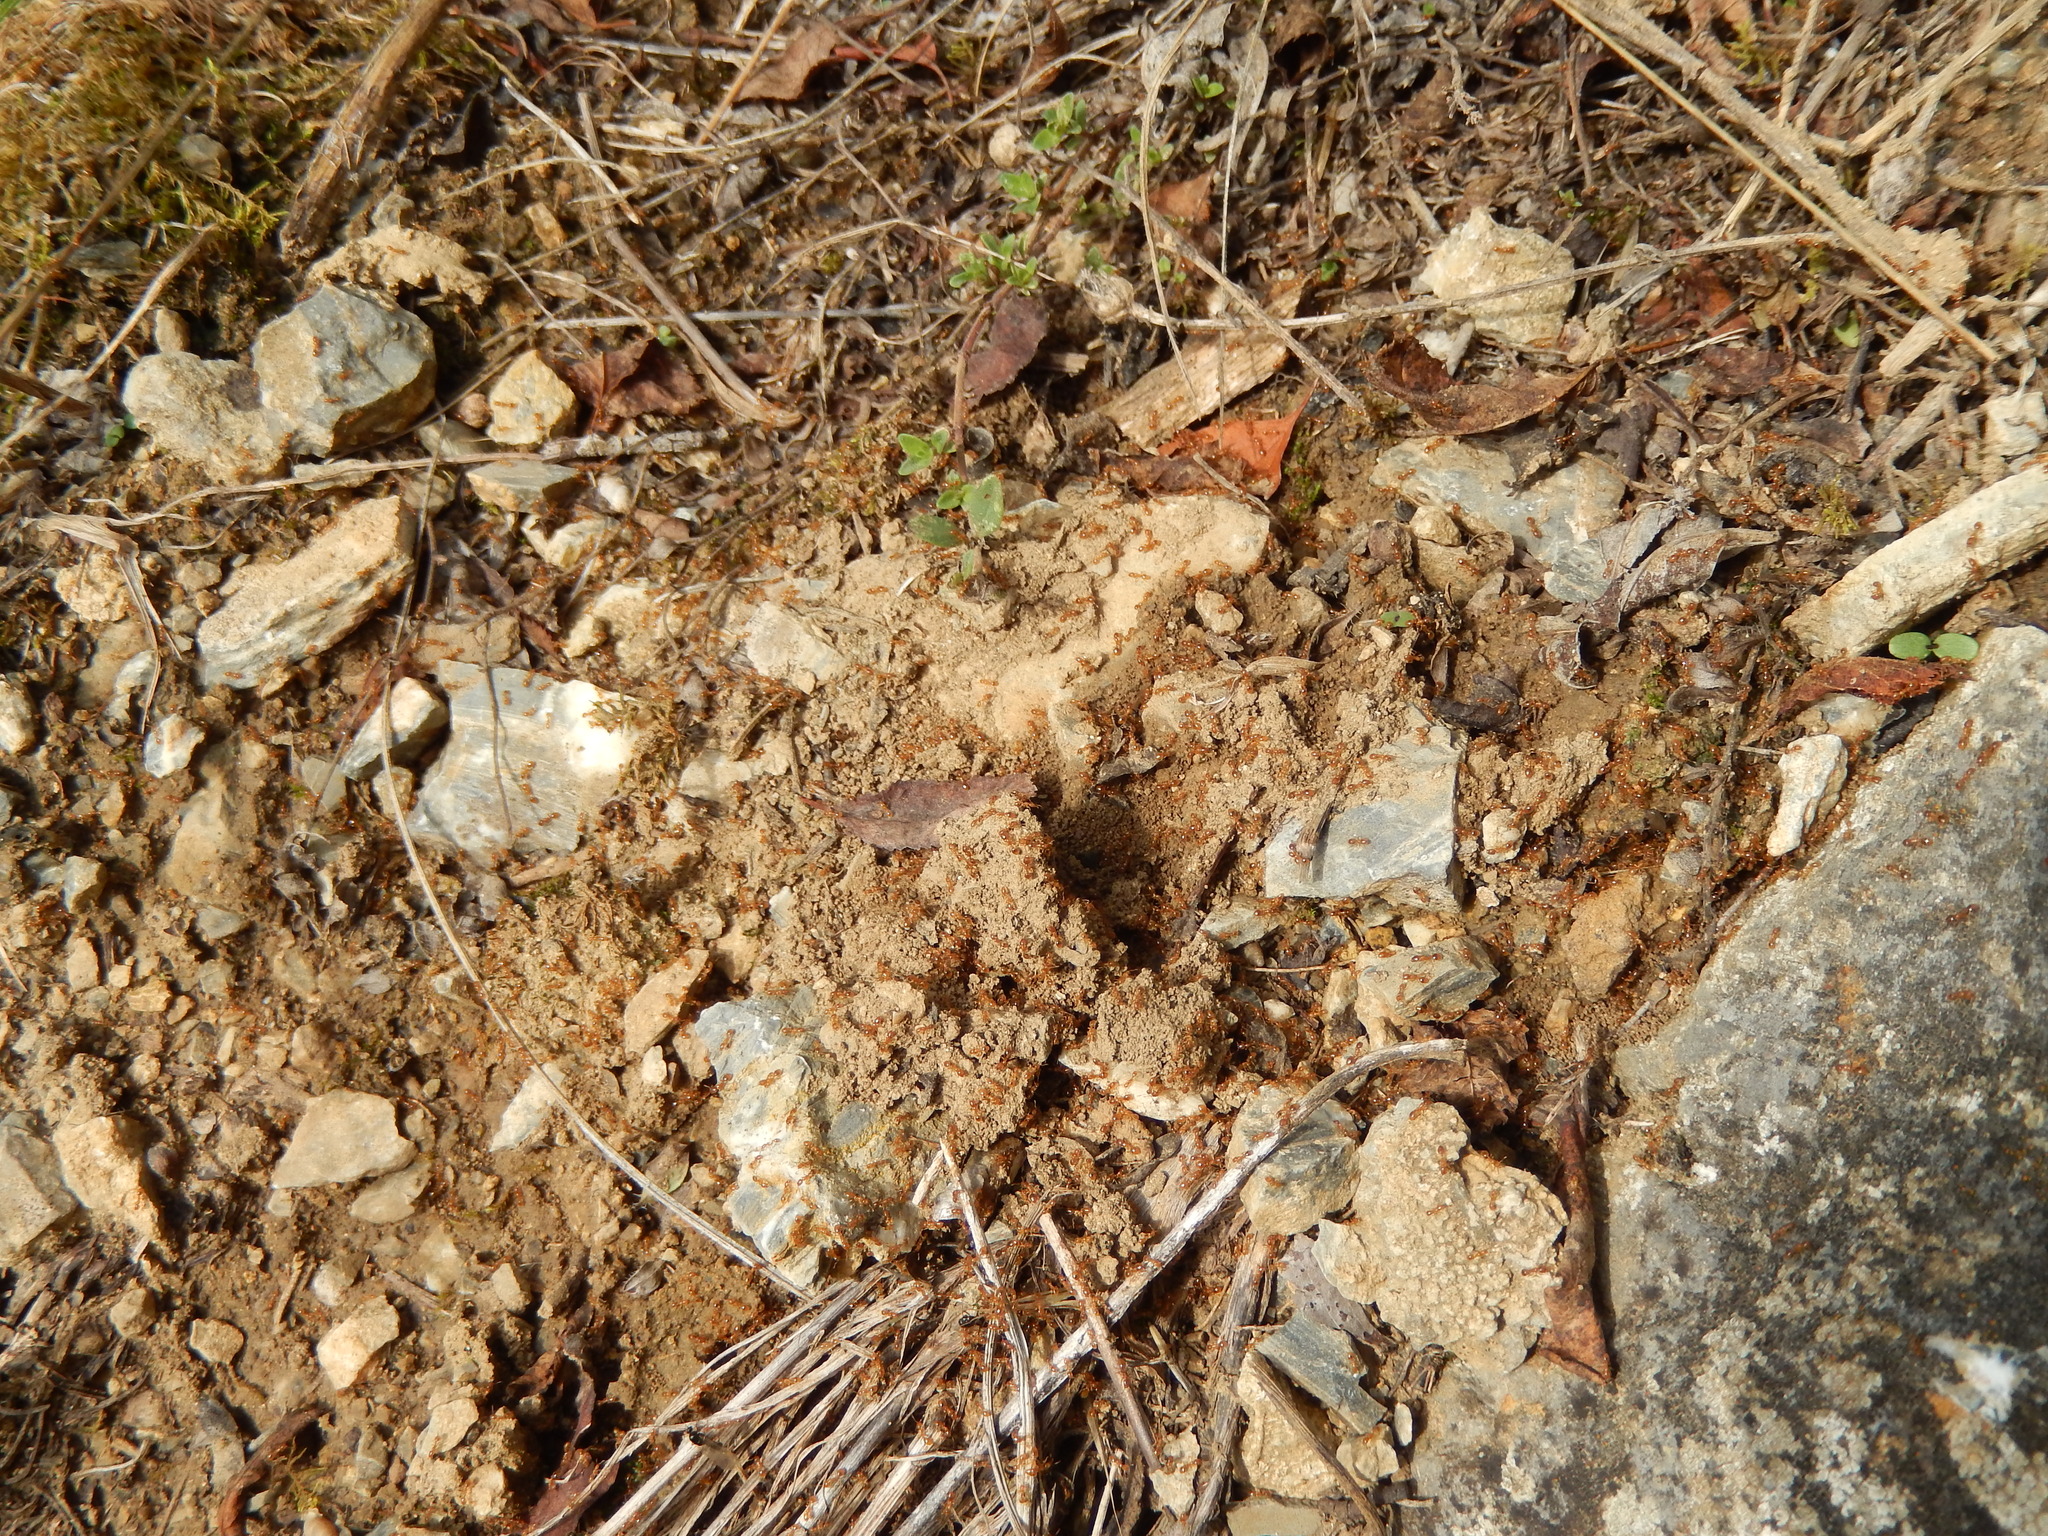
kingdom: Animalia
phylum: Arthropoda
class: Insecta
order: Hymenoptera
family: Formicidae
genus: Solenopsis
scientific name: Solenopsis fugax
